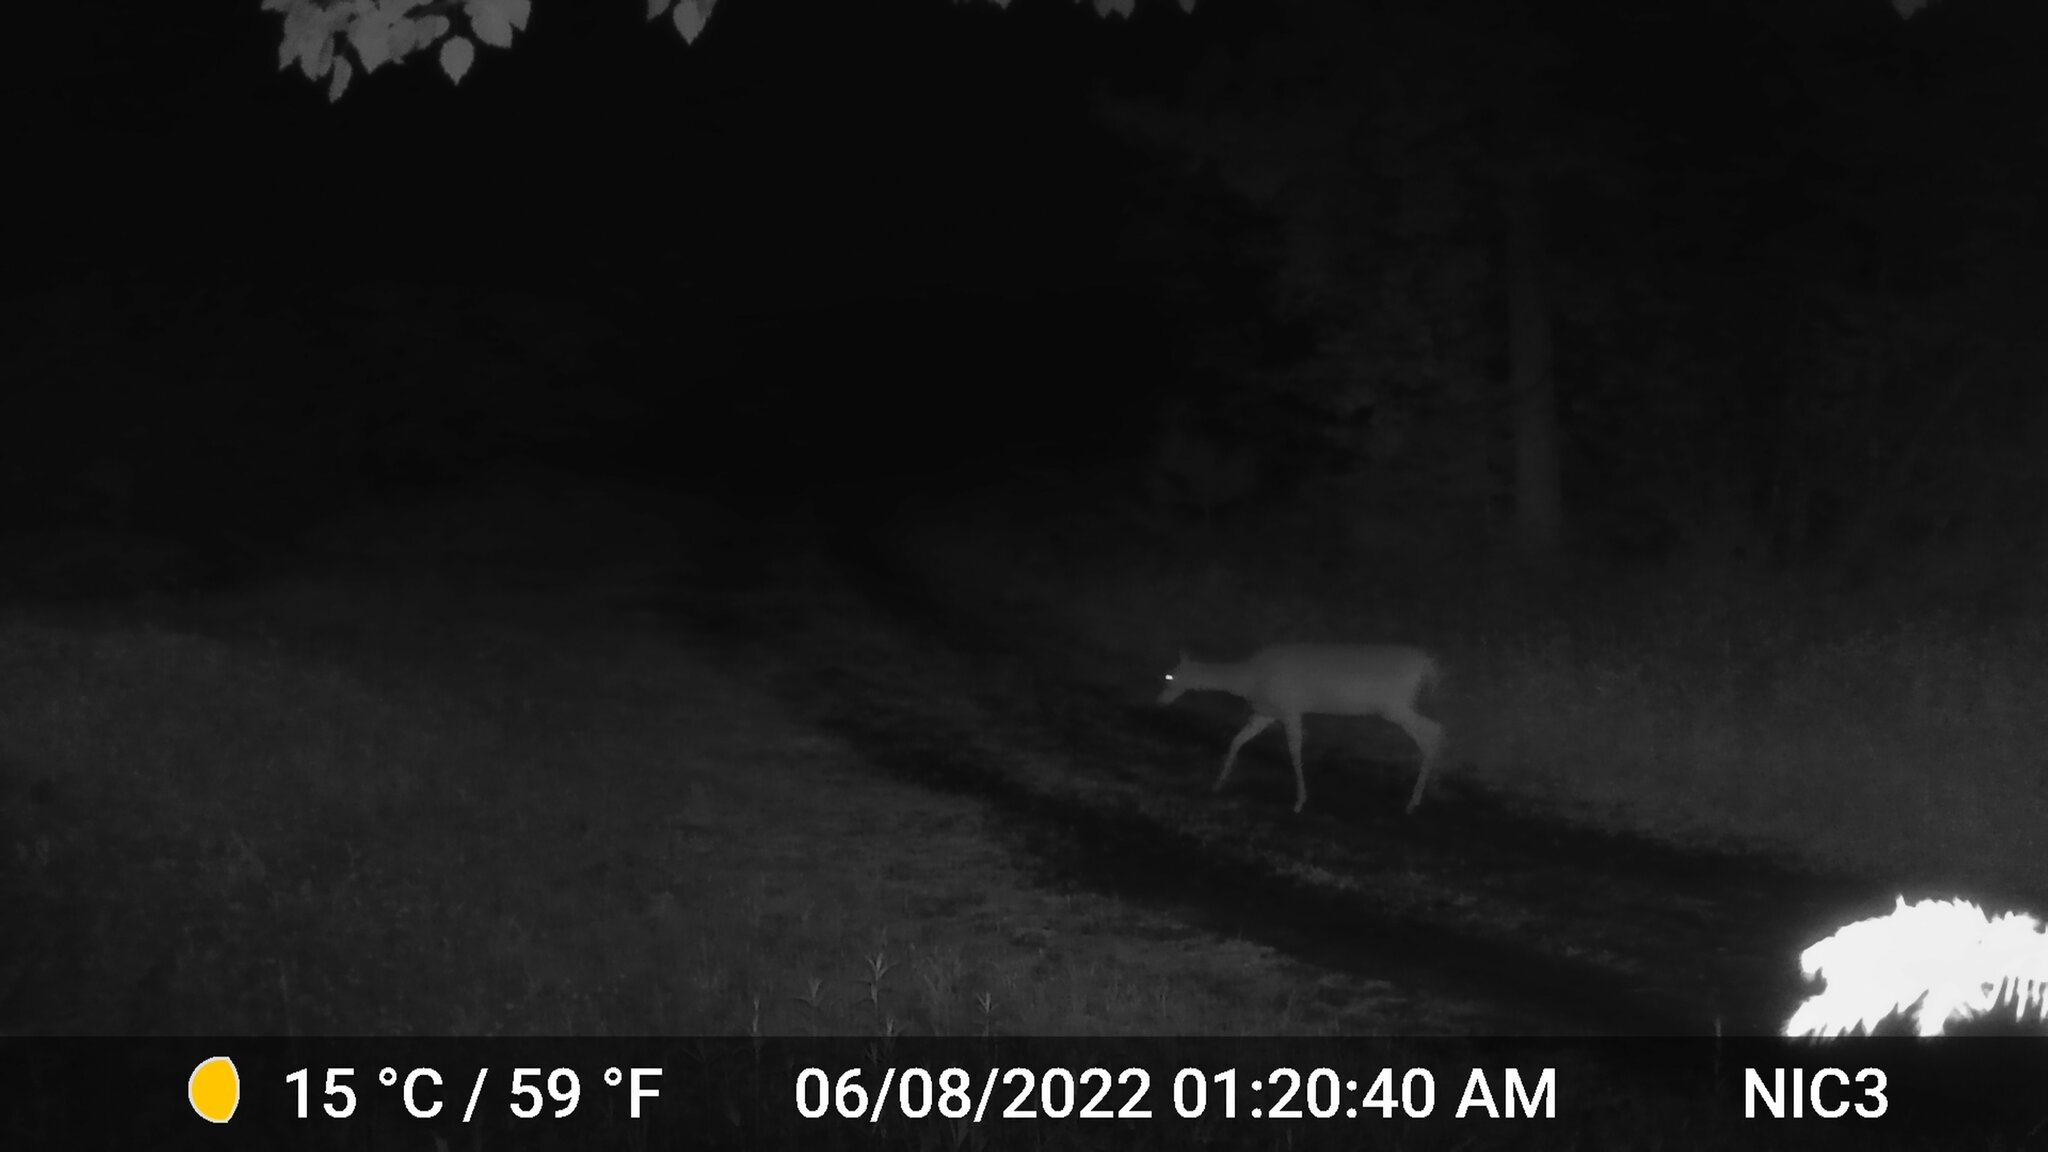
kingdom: Animalia
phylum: Chordata
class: Mammalia
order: Artiodactyla
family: Cervidae
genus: Odocoileus
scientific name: Odocoileus virginianus
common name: White-tailed deer
